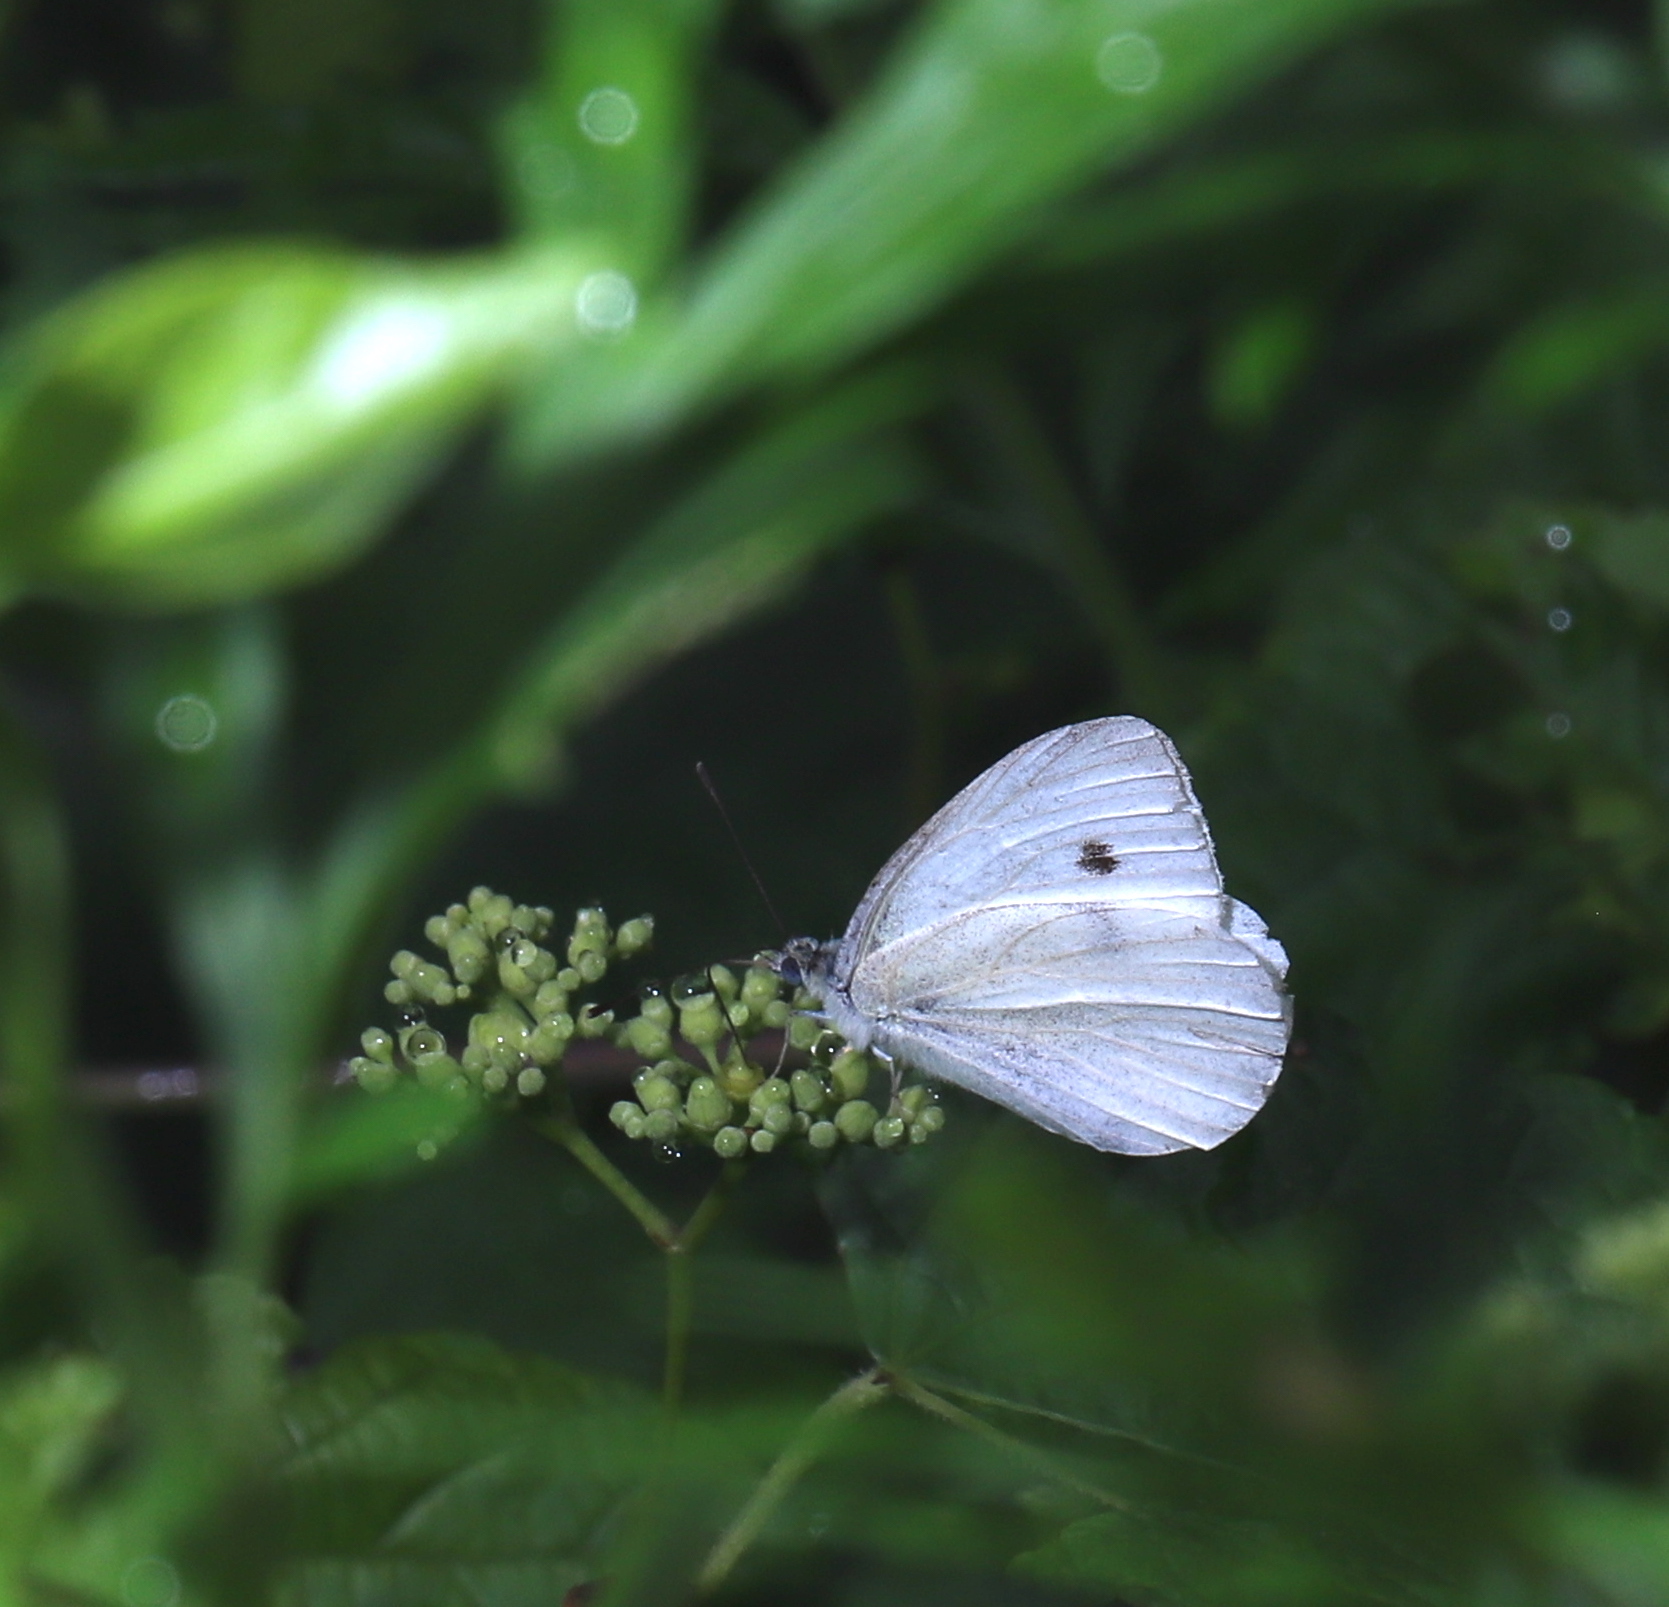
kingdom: Animalia
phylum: Arthropoda
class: Insecta
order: Lepidoptera
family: Pieridae
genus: Pieris
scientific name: Pieris rapae
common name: Small white
